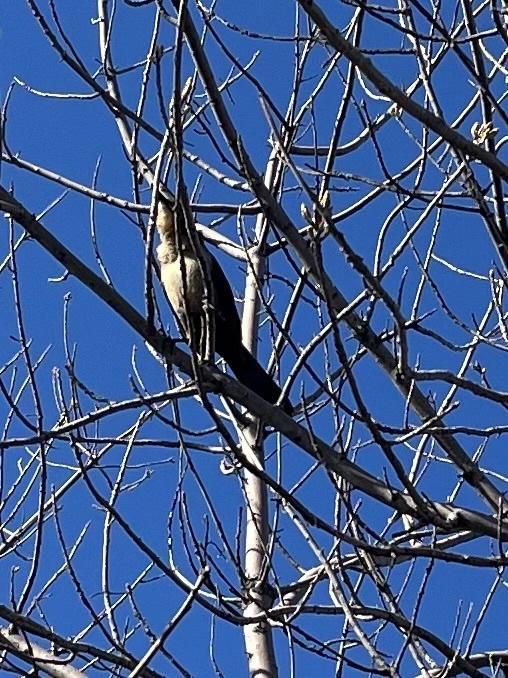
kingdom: Animalia
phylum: Chordata
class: Aves
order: Passeriformes
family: Icteridae
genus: Quiscalus
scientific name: Quiscalus mexicanus
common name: Great-tailed grackle
